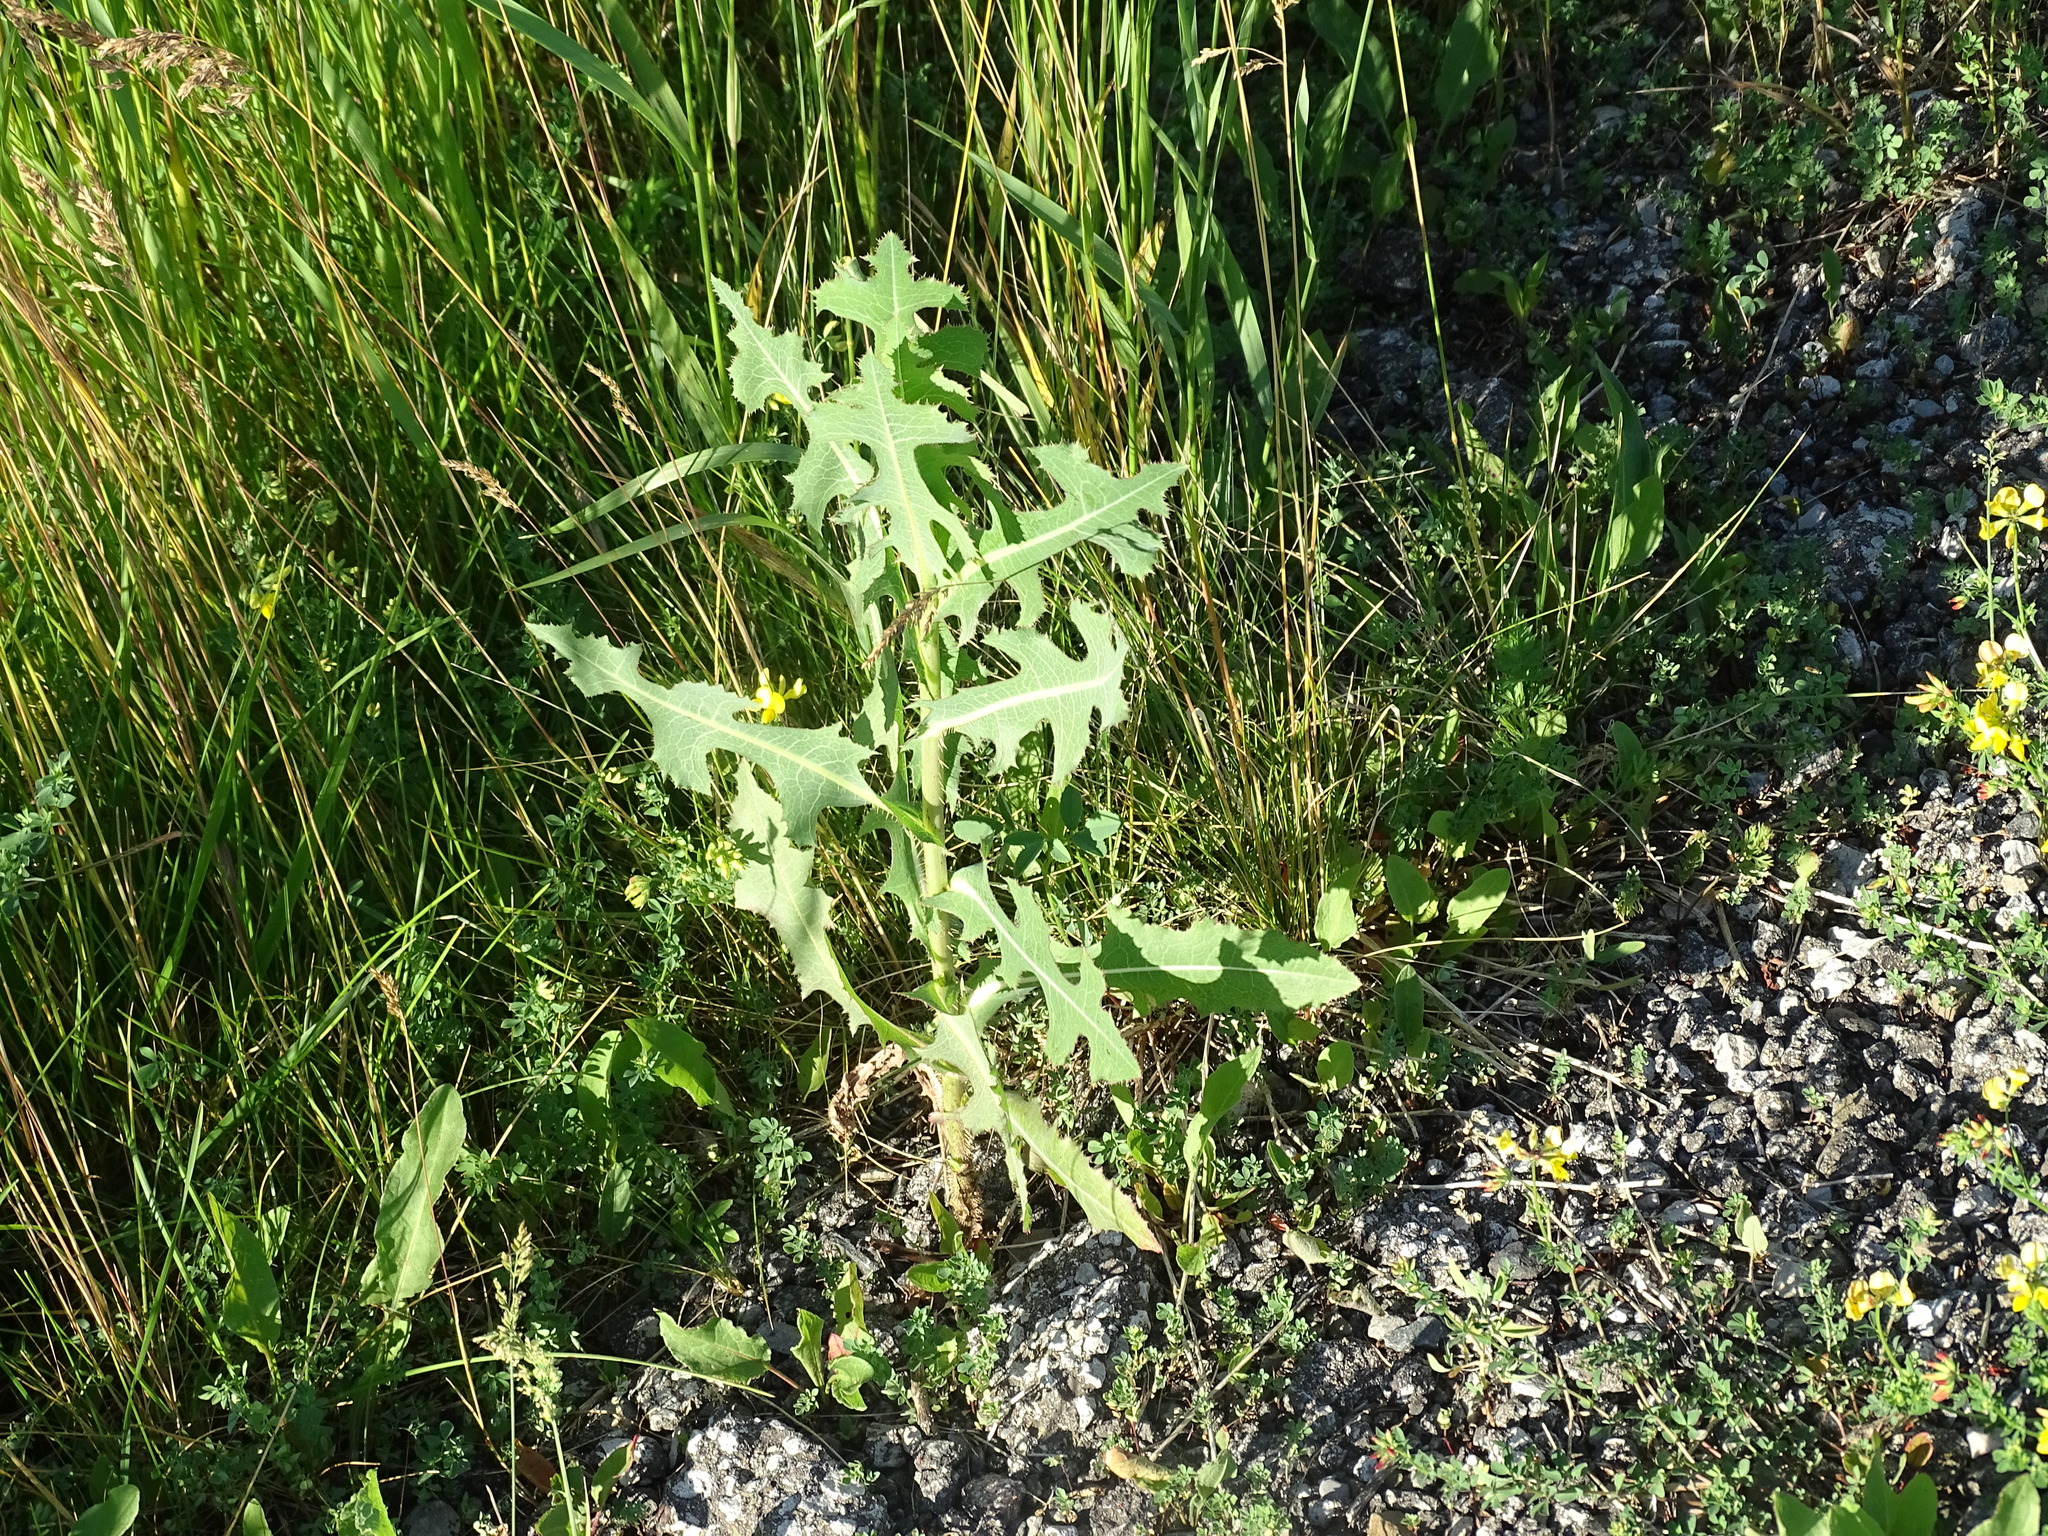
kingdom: Plantae
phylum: Tracheophyta
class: Magnoliopsida
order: Asterales
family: Asteraceae
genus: Lactuca
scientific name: Lactuca serriola
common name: Prickly lettuce
